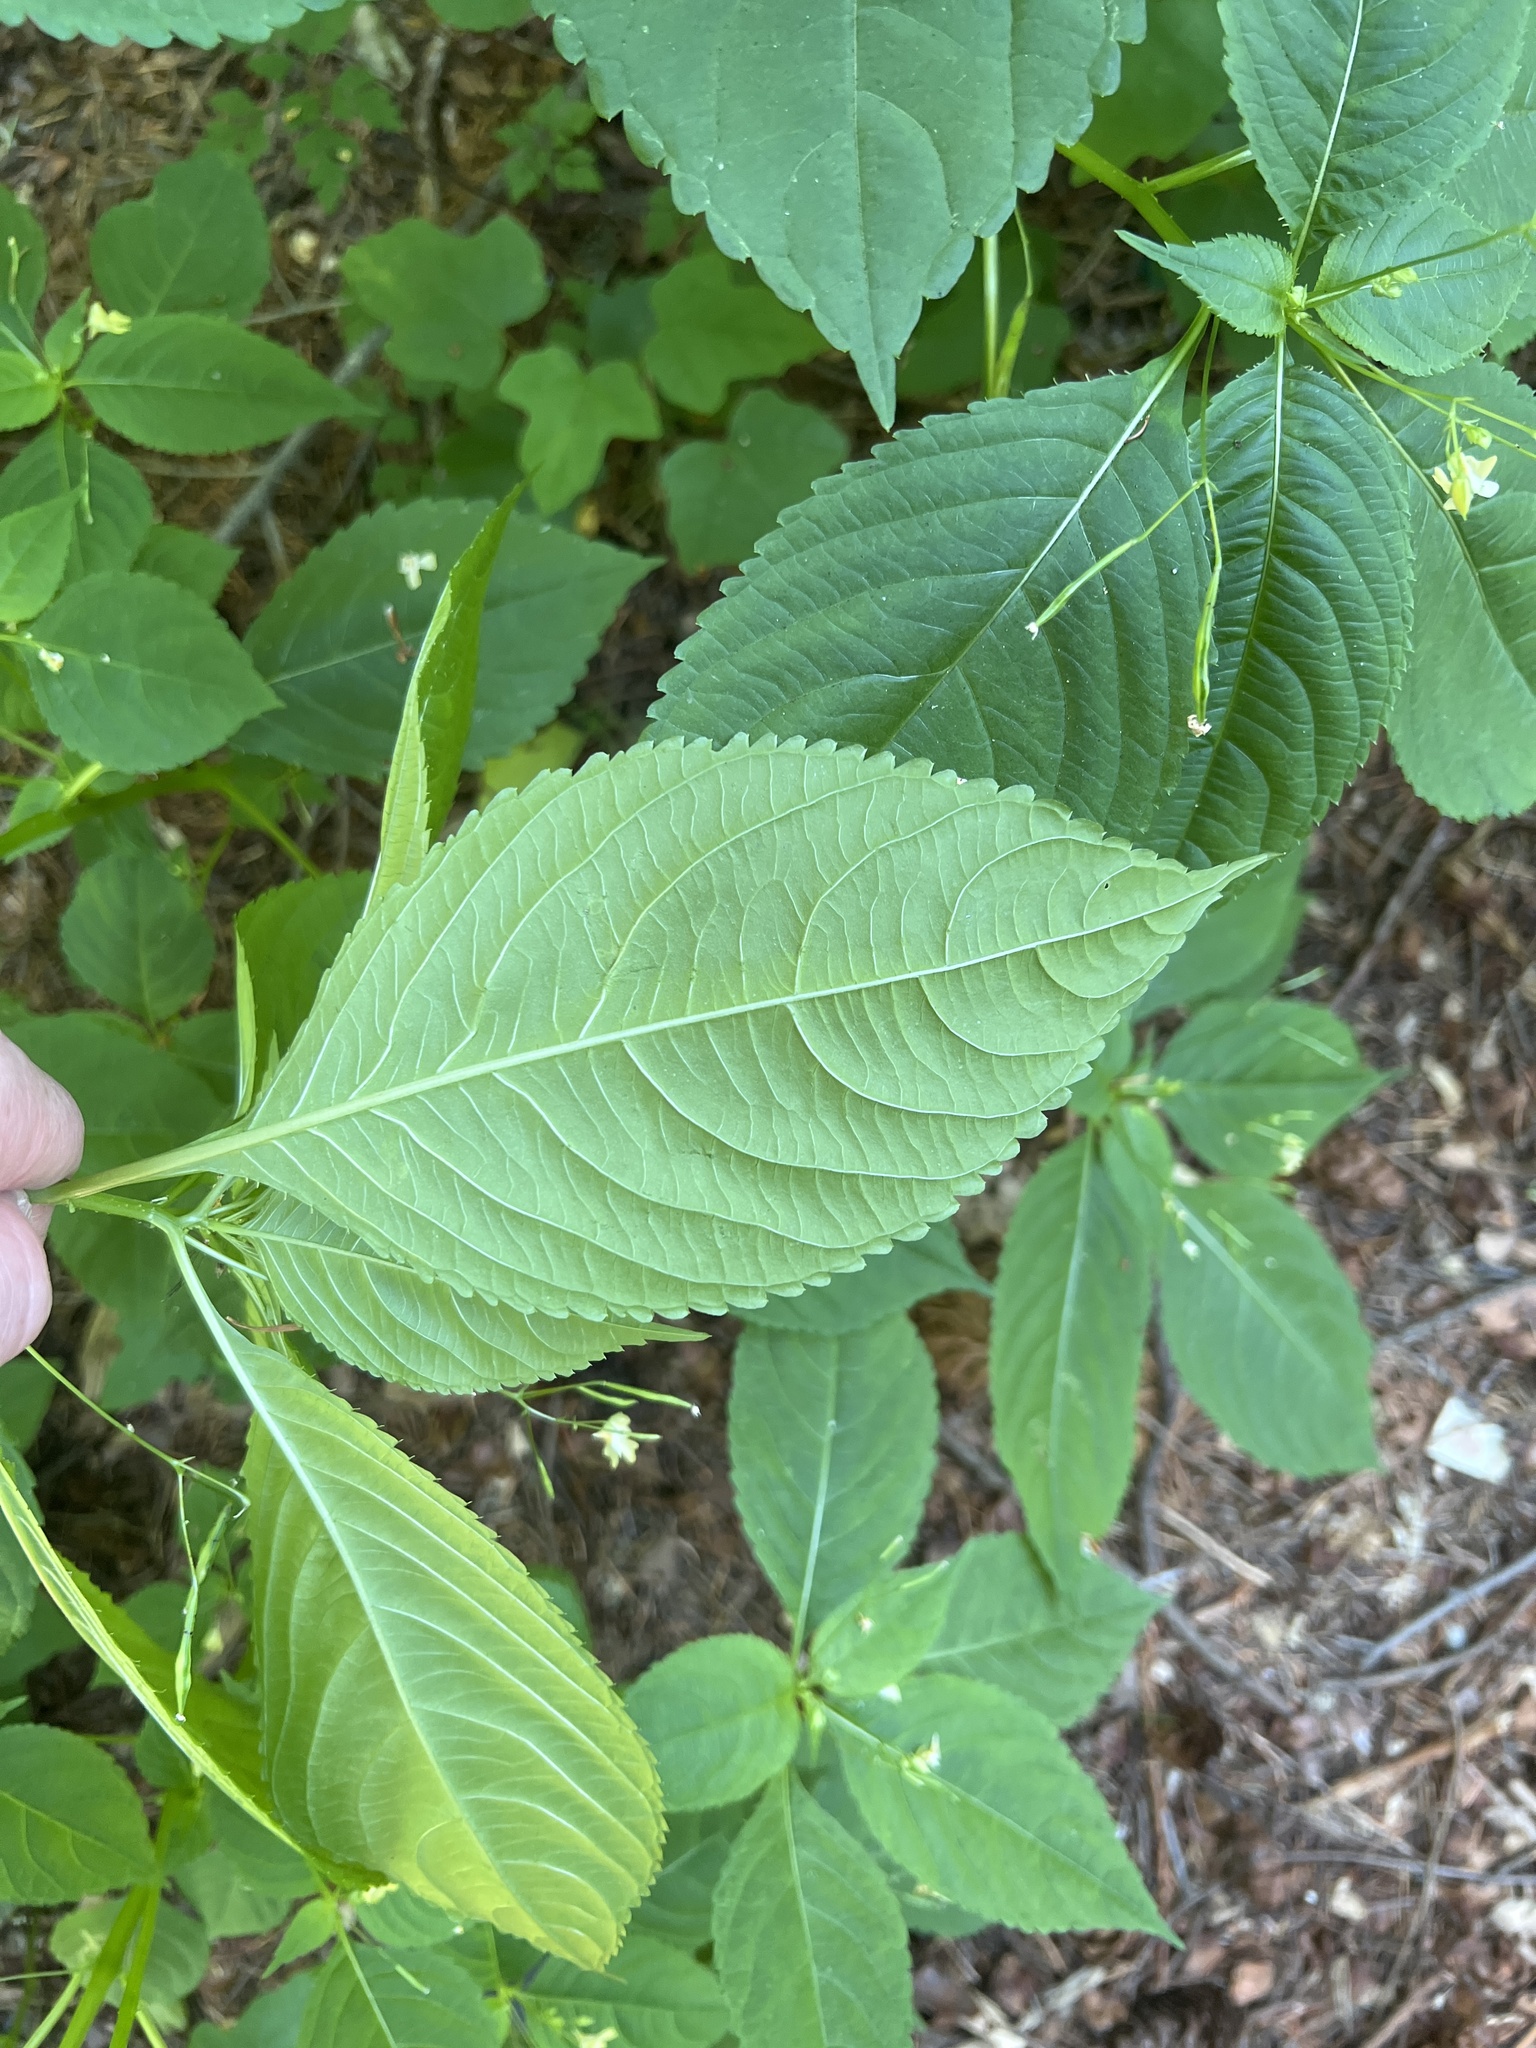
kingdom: Plantae
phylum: Tracheophyta
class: Magnoliopsida
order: Ericales
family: Balsaminaceae
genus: Impatiens
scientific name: Impatiens parviflora
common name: Small balsam
